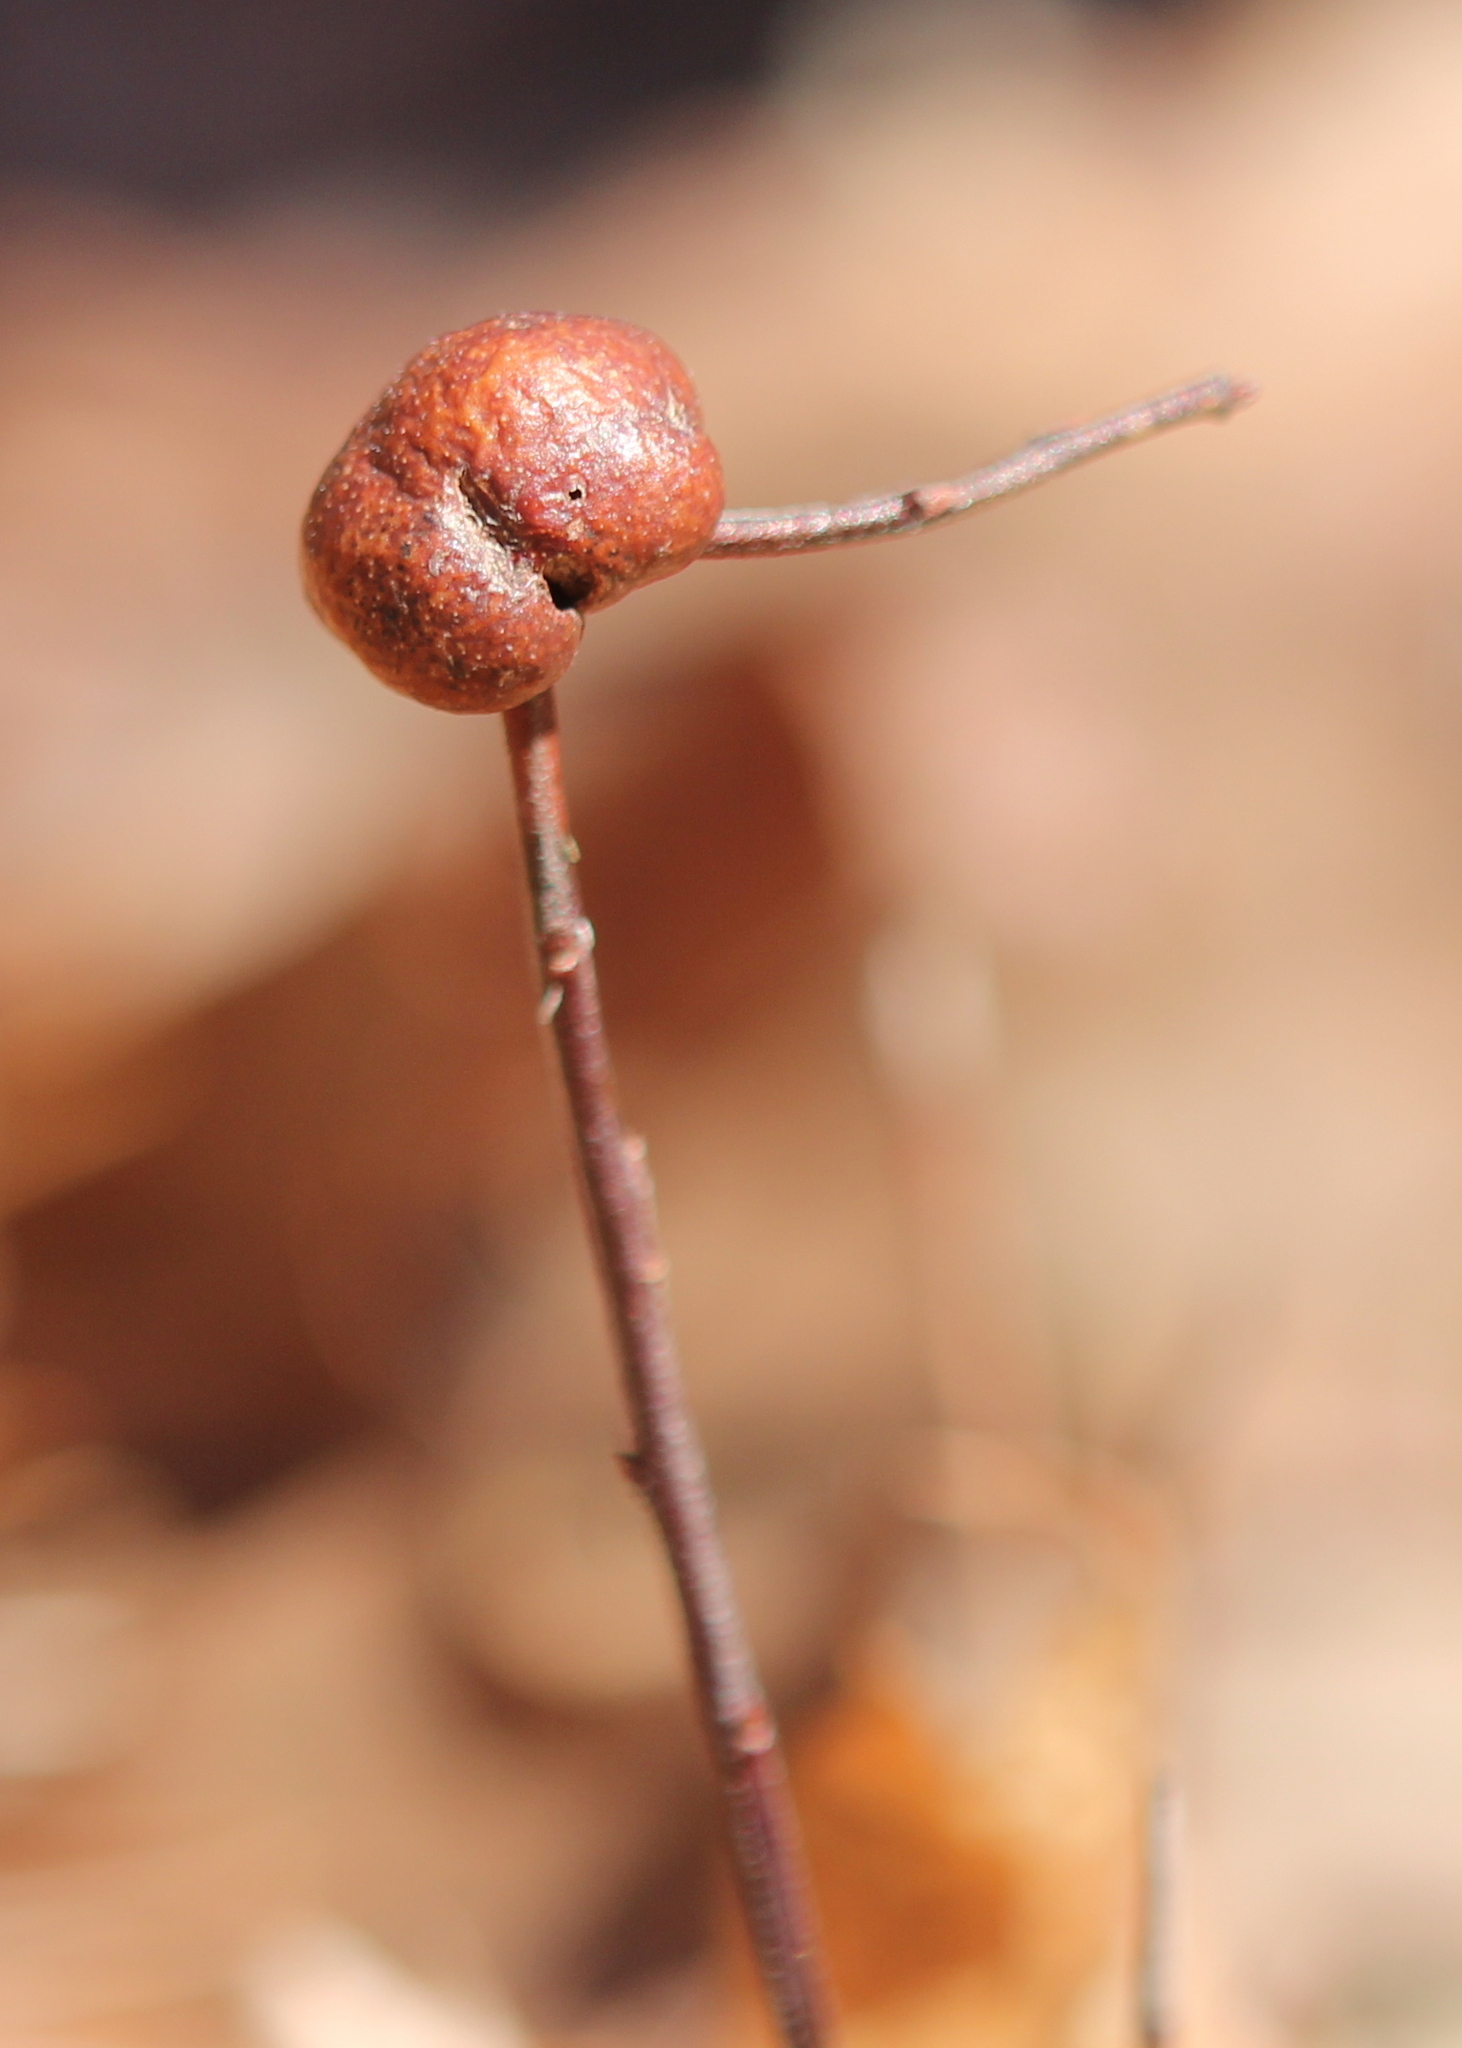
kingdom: Animalia
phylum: Arthropoda
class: Insecta
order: Hymenoptera
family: Pteromalidae
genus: Hemadas
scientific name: Hemadas nubilipennis
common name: Blueberry stem gall wasp
